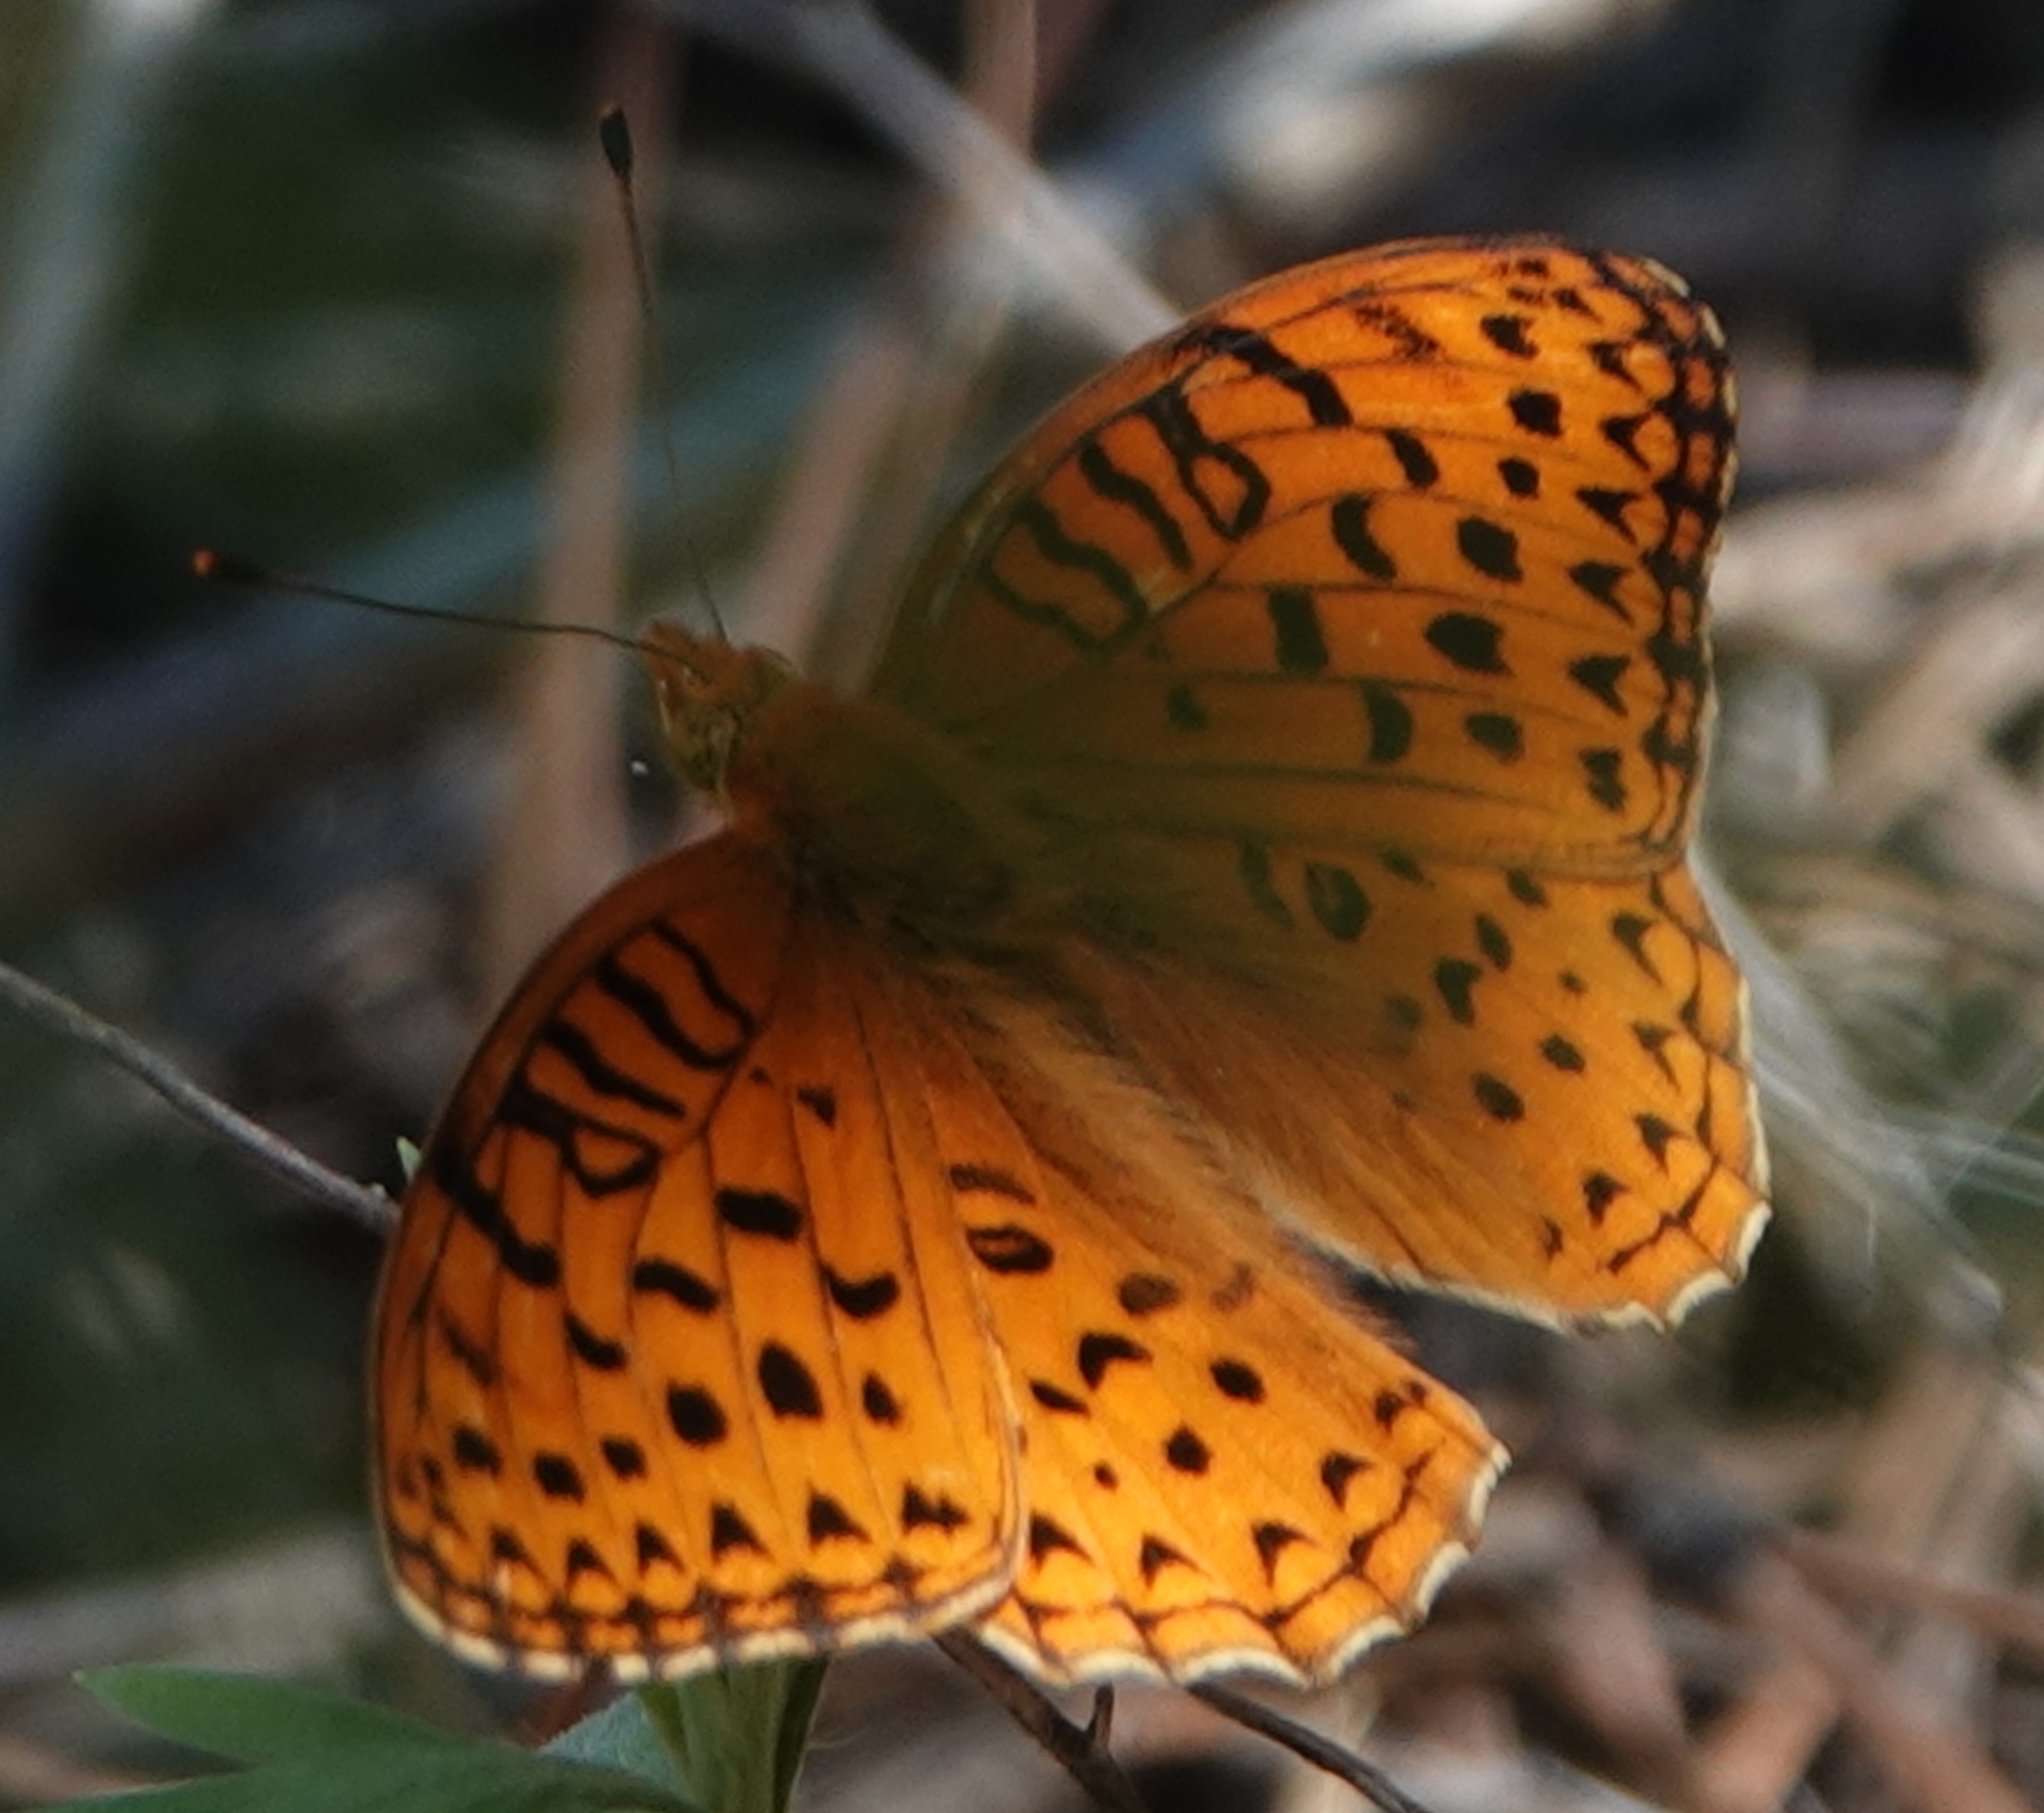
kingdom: Animalia
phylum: Arthropoda
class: Insecta
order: Lepidoptera
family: Nymphalidae
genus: Speyeria
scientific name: Speyeria aphrodite
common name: Aphrodite friitllary
